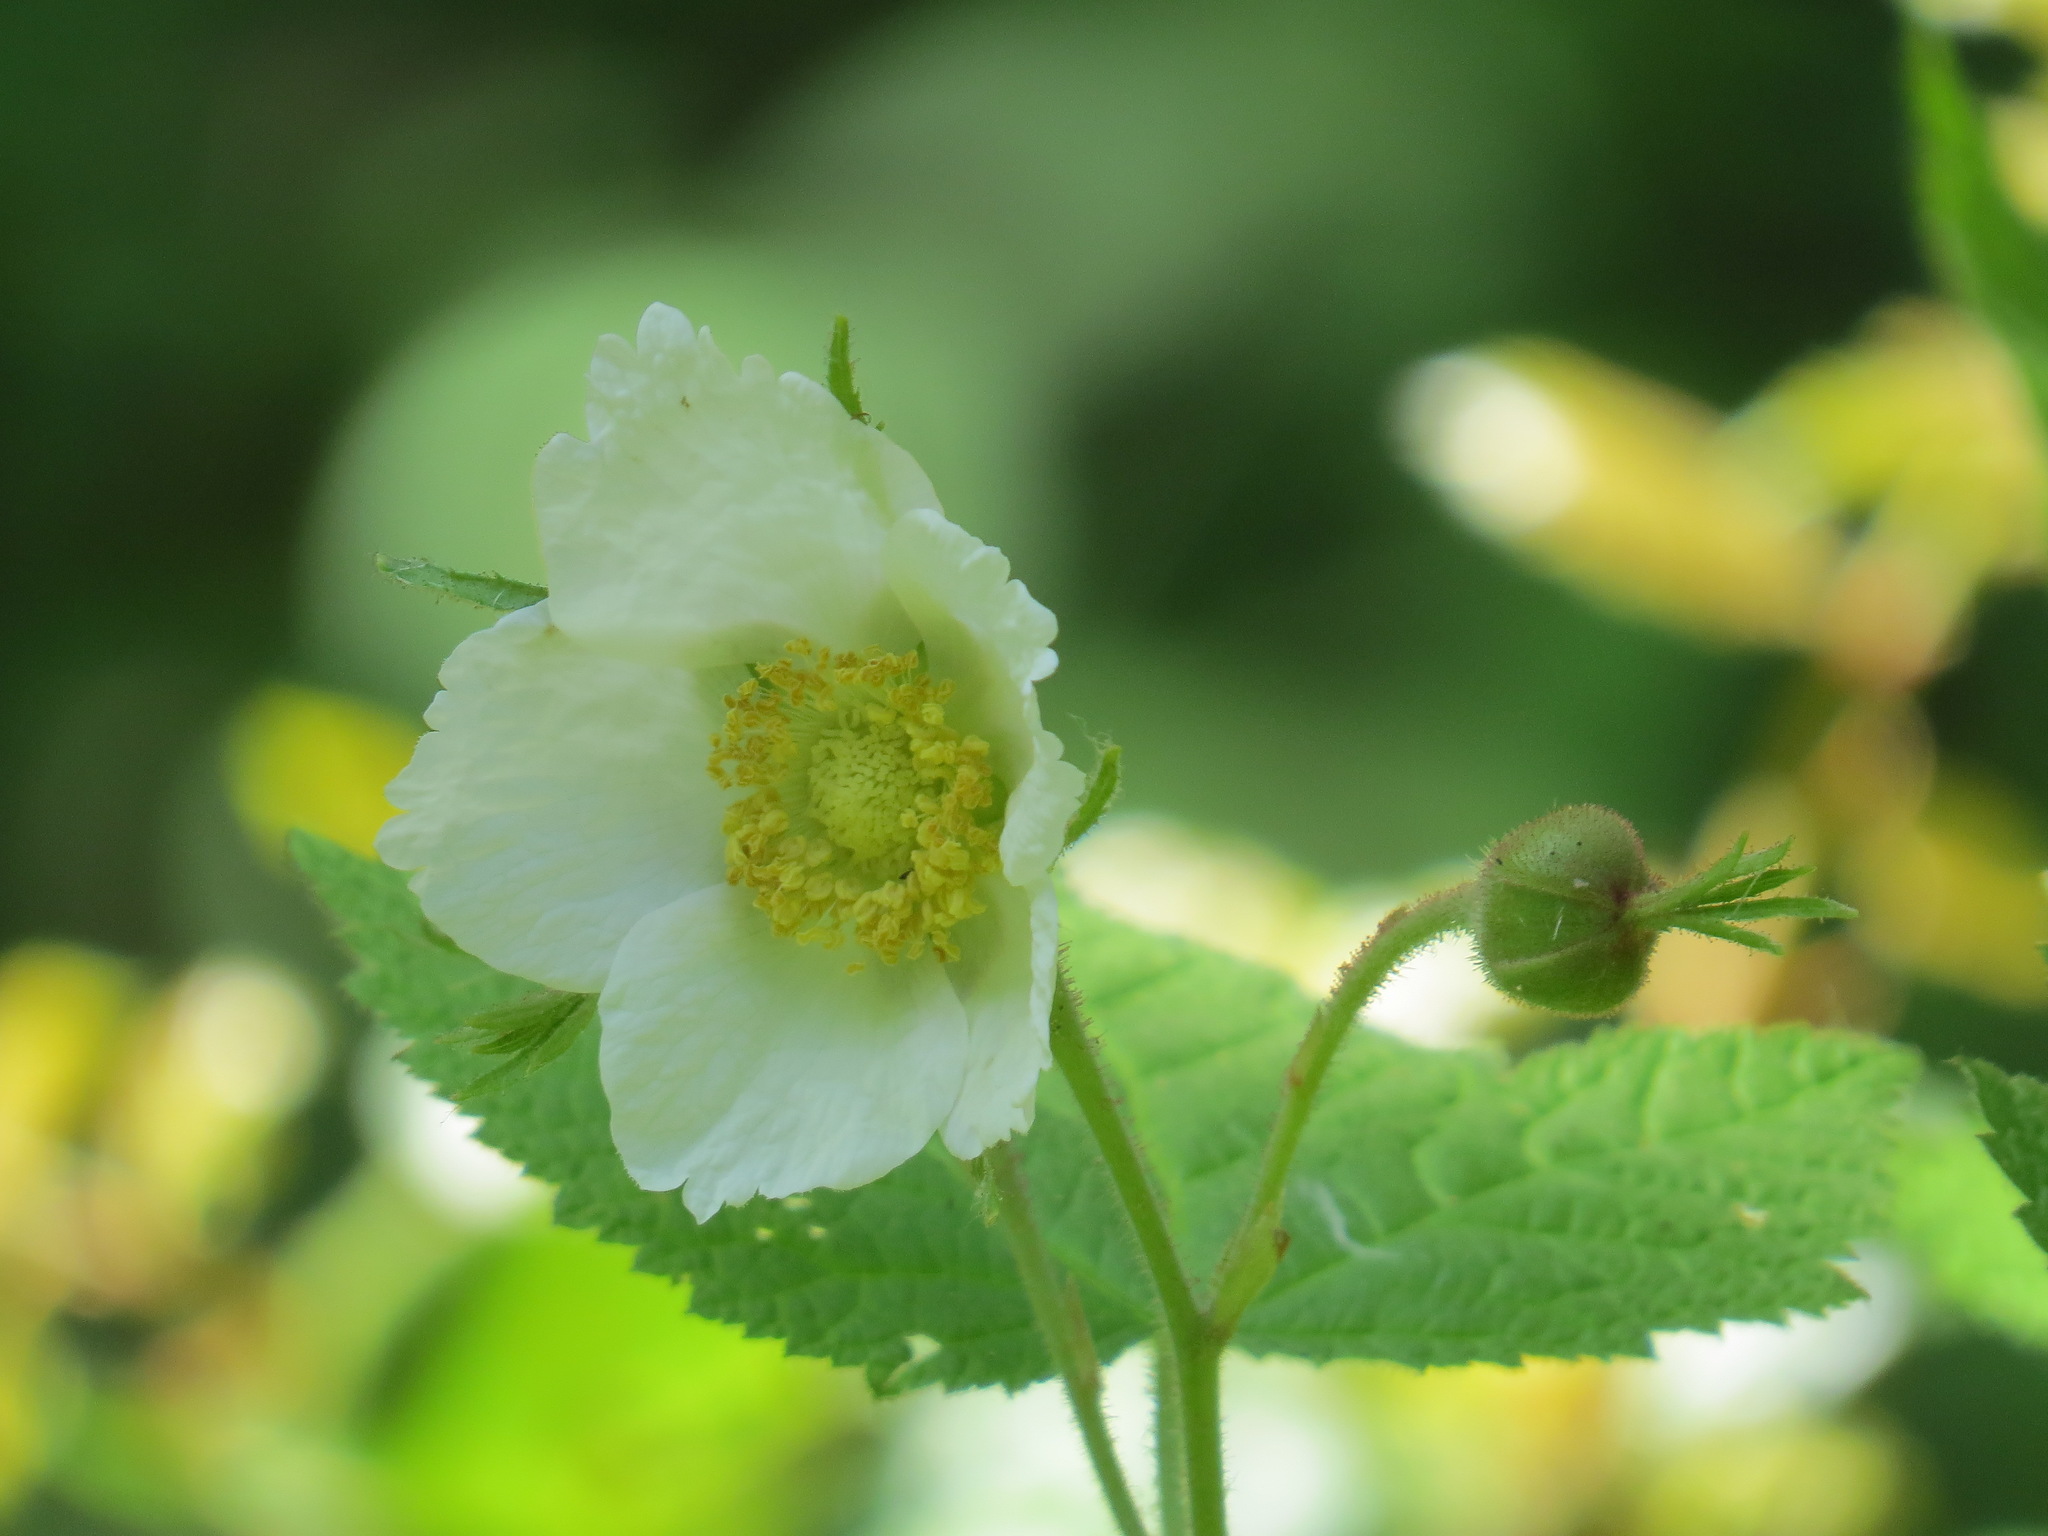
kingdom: Plantae
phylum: Tracheophyta
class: Magnoliopsida
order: Rosales
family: Rosaceae
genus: Rubus
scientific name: Rubus parviflorus
